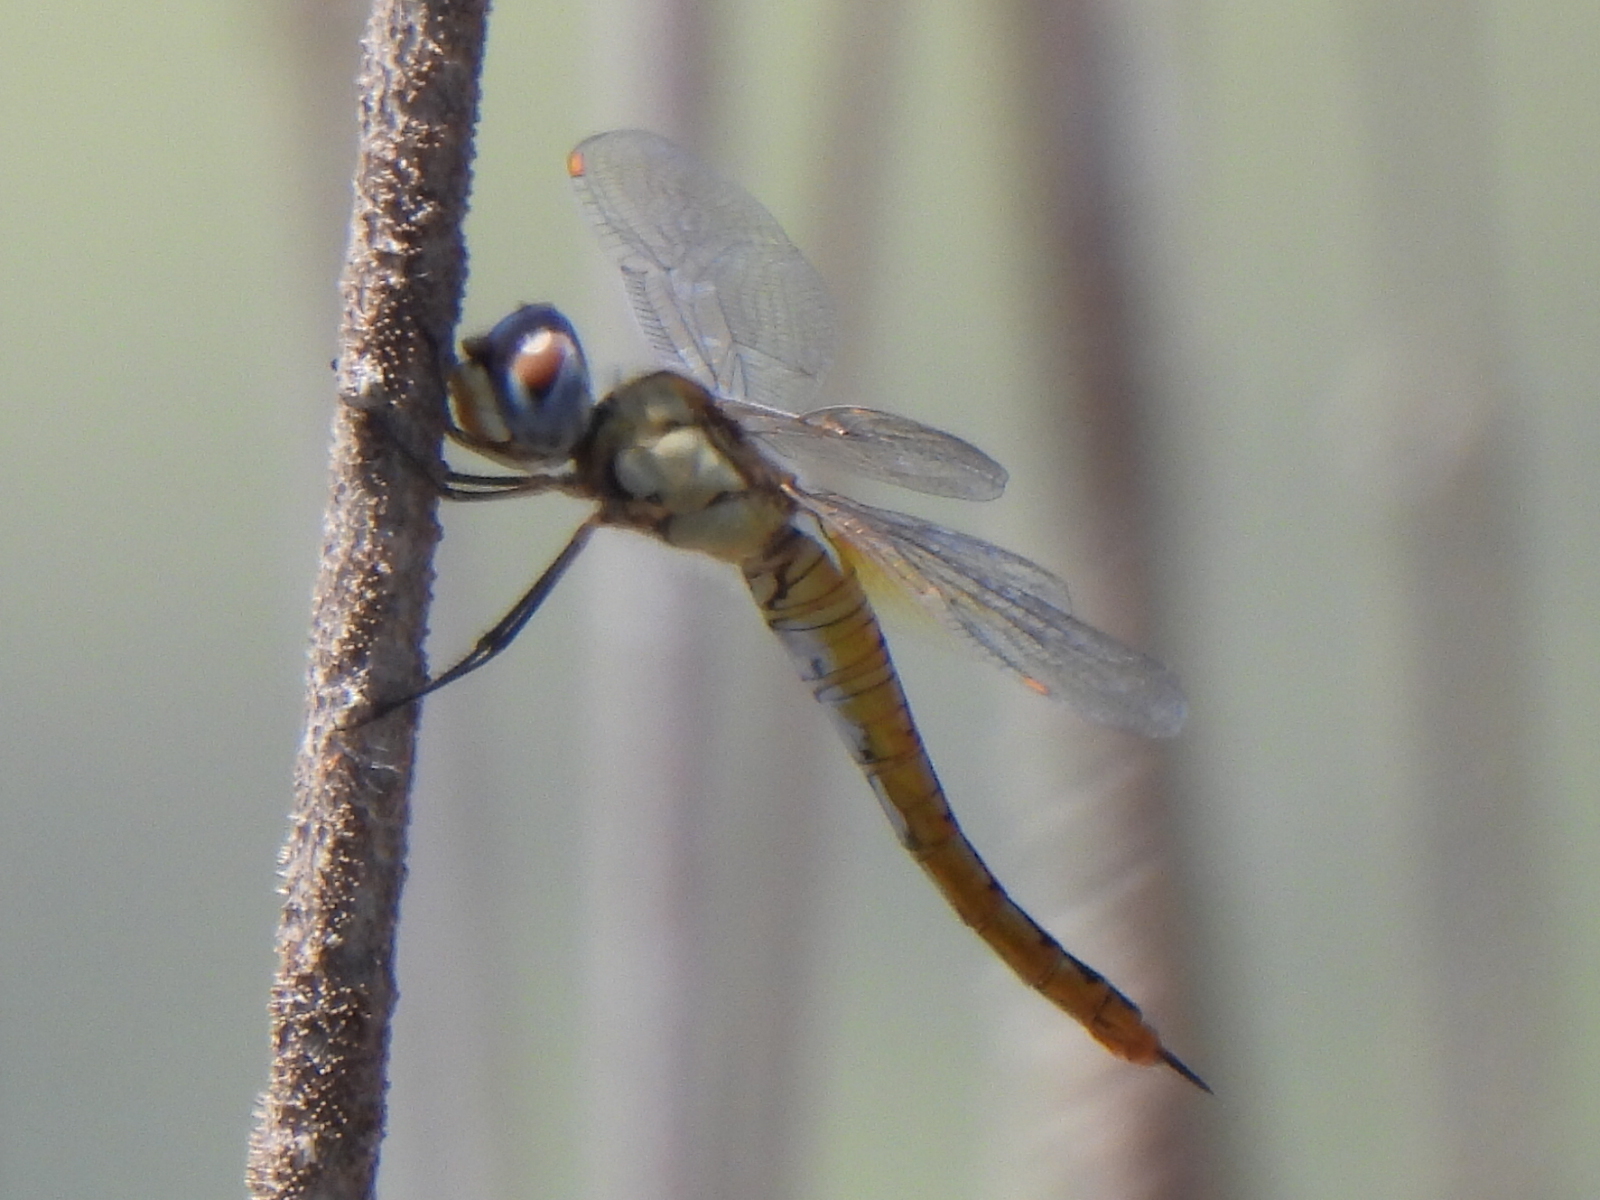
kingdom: Animalia
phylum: Arthropoda
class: Insecta
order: Odonata
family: Libellulidae
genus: Pantala
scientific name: Pantala flavescens
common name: Wandering glider
